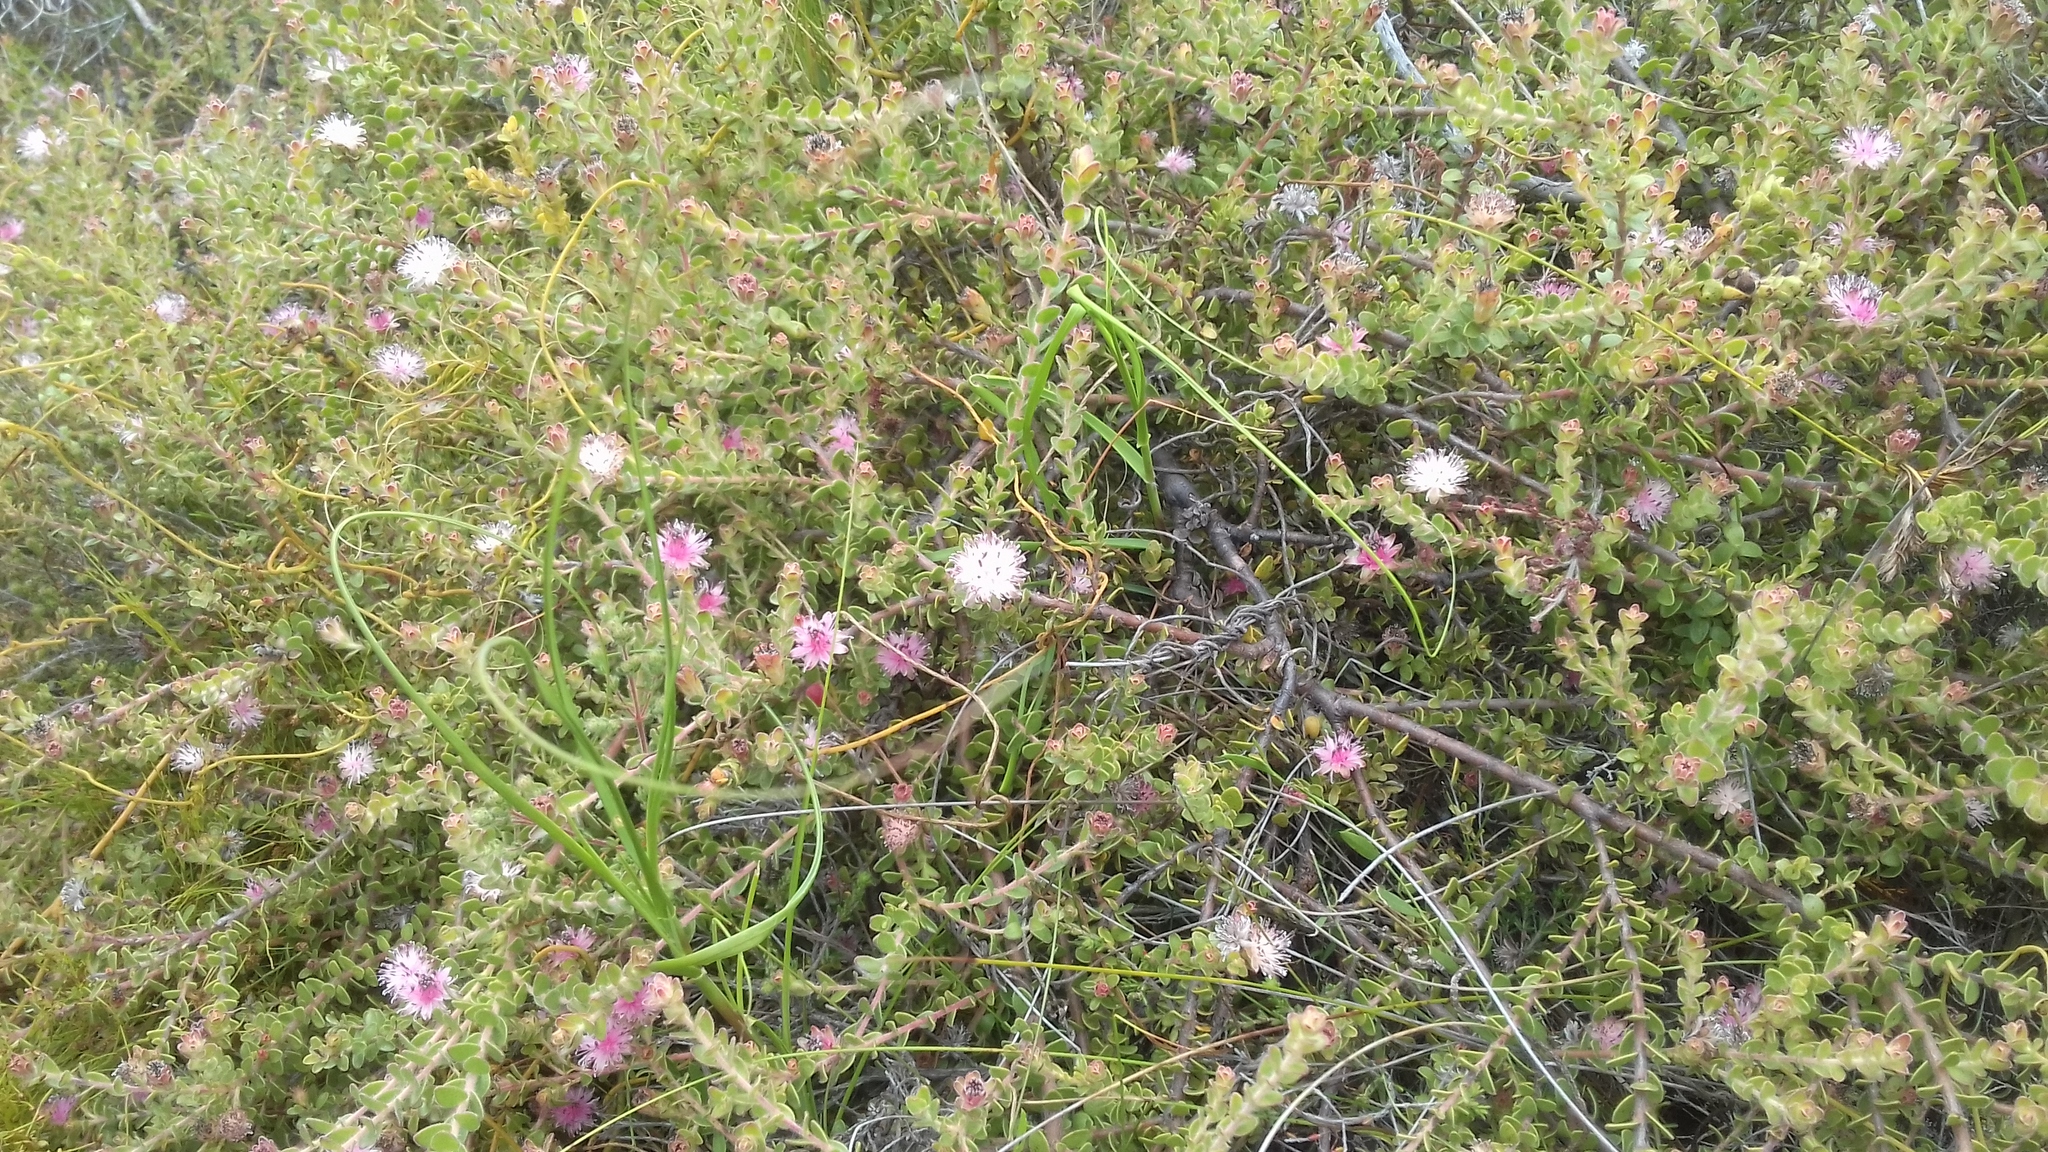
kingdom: Plantae
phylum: Tracheophyta
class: Magnoliopsida
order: Proteales
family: Proteaceae
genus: Diastella
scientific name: Diastella divaricata
